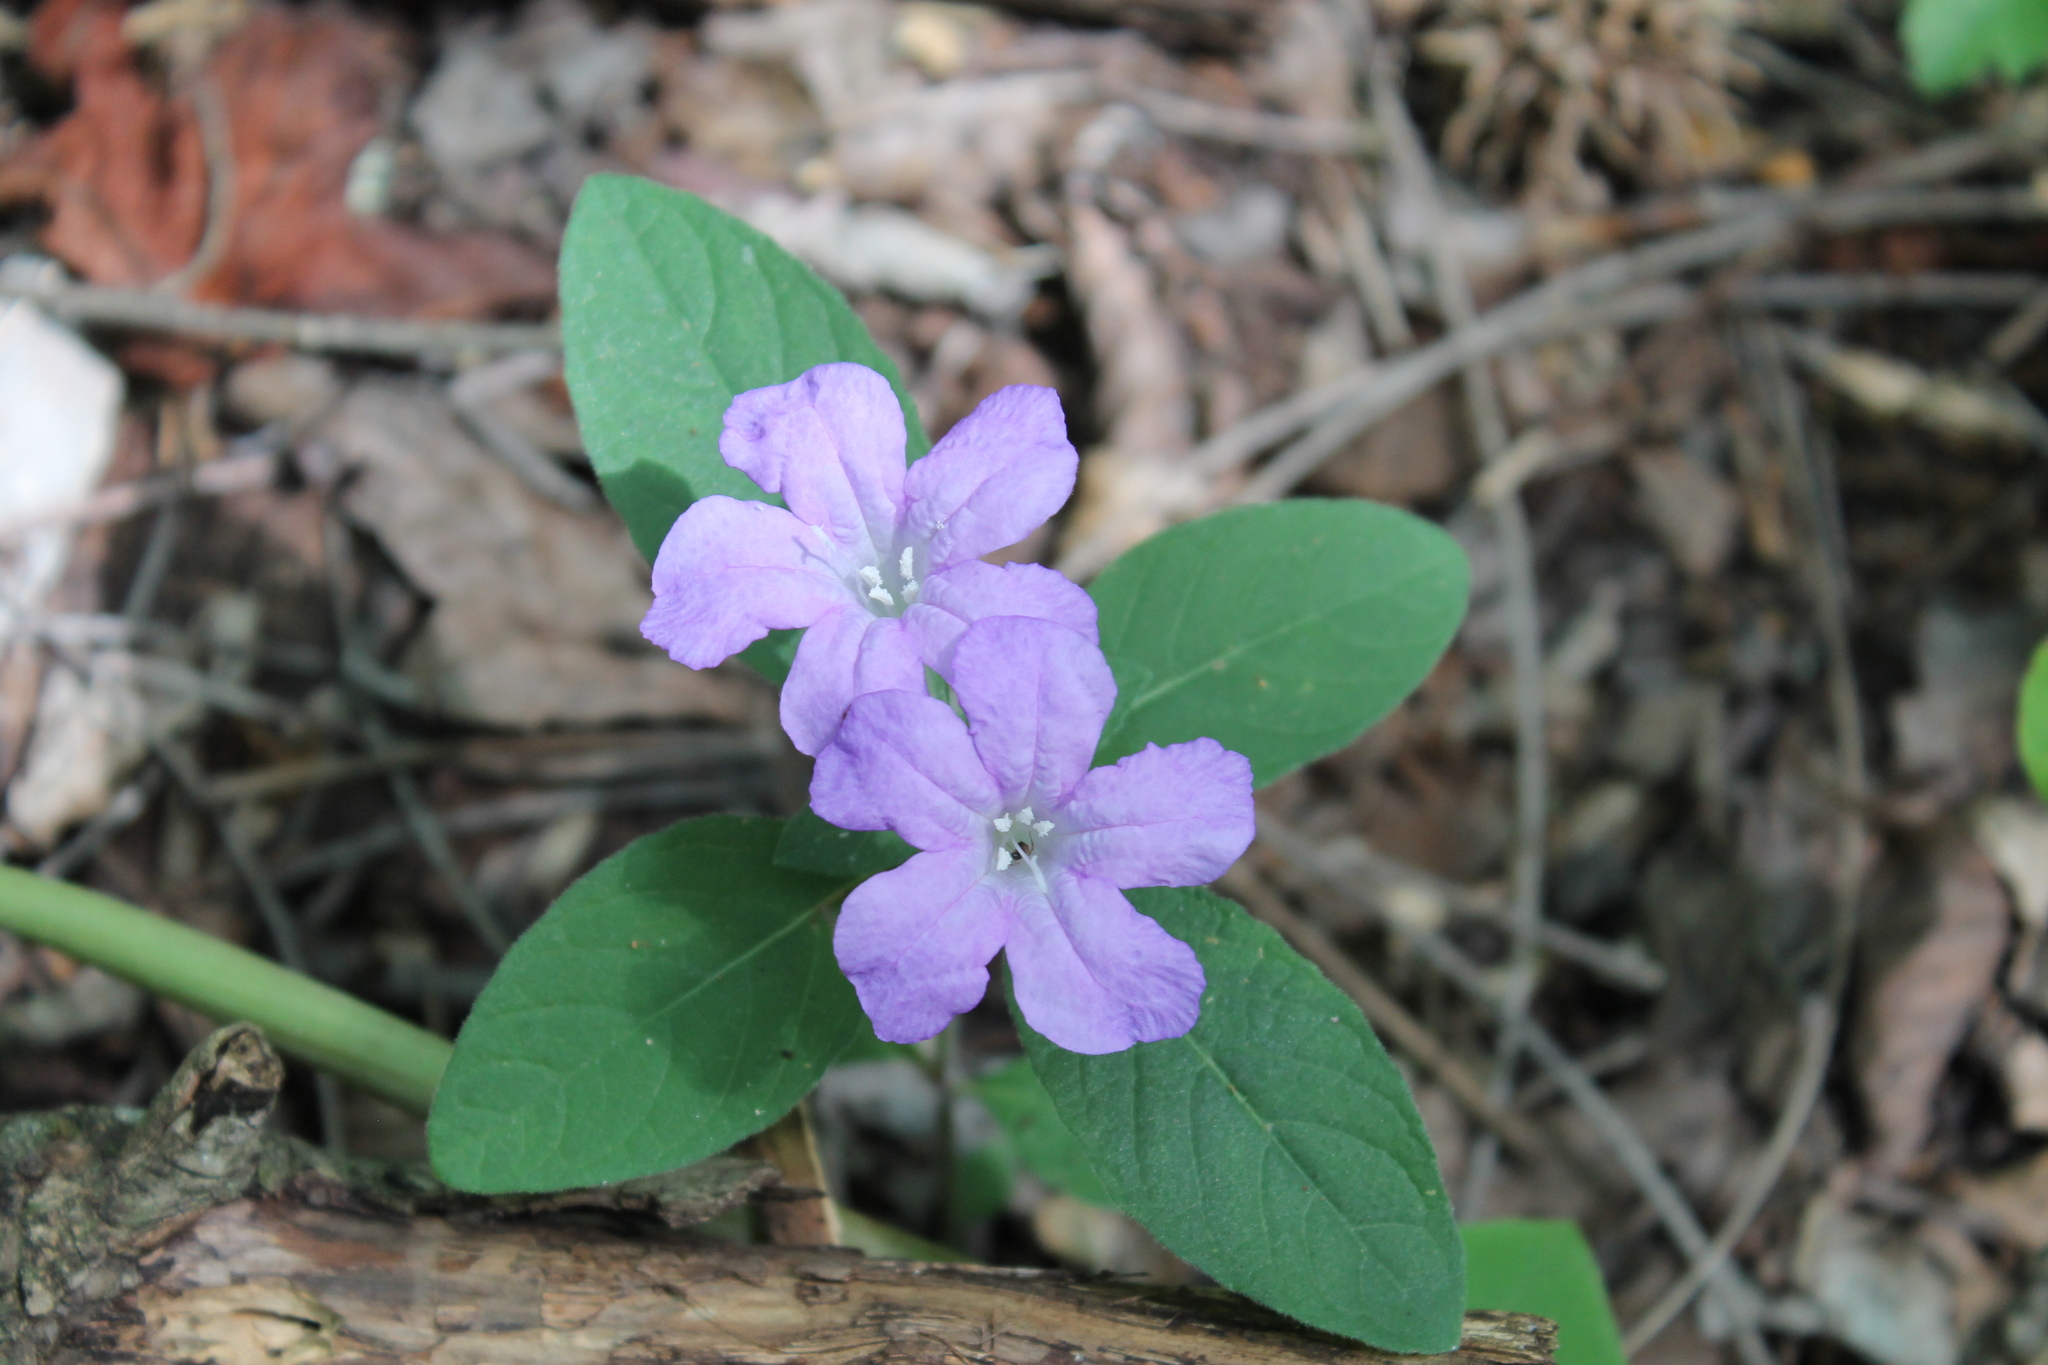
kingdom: Plantae
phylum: Tracheophyta
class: Magnoliopsida
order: Lamiales
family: Acanthaceae
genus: Ruellia
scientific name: Ruellia caroliniensis
